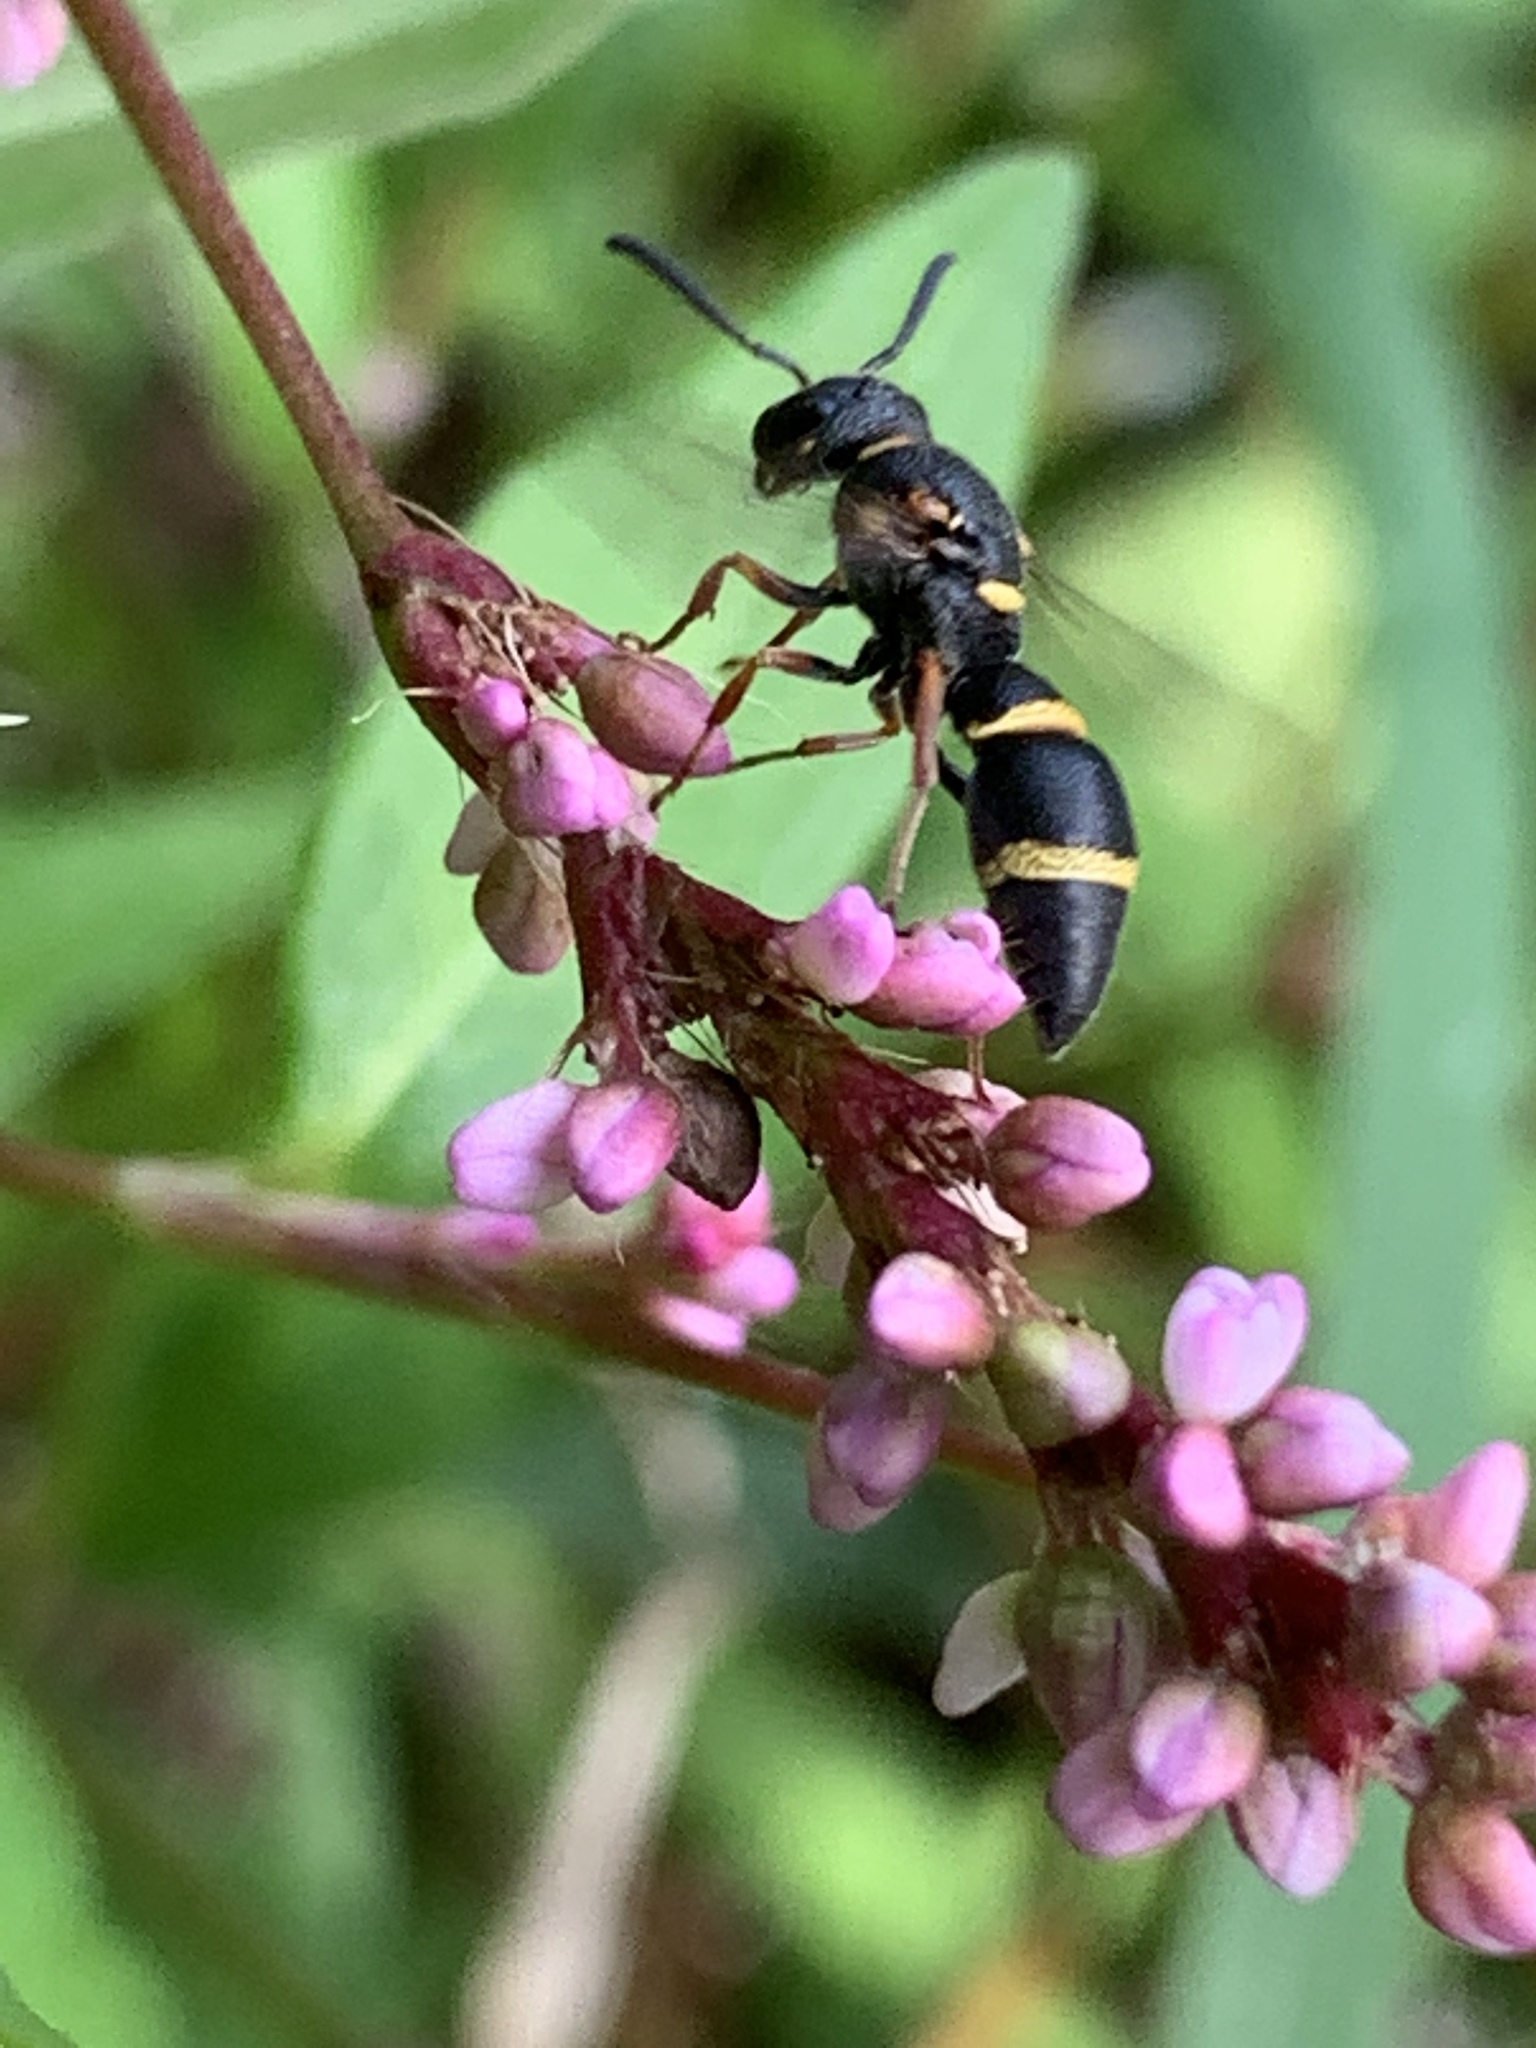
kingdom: Animalia
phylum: Arthropoda
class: Insecta
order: Hymenoptera
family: Eumenidae
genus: Parancistrocerus
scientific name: Parancistrocerus perennis
